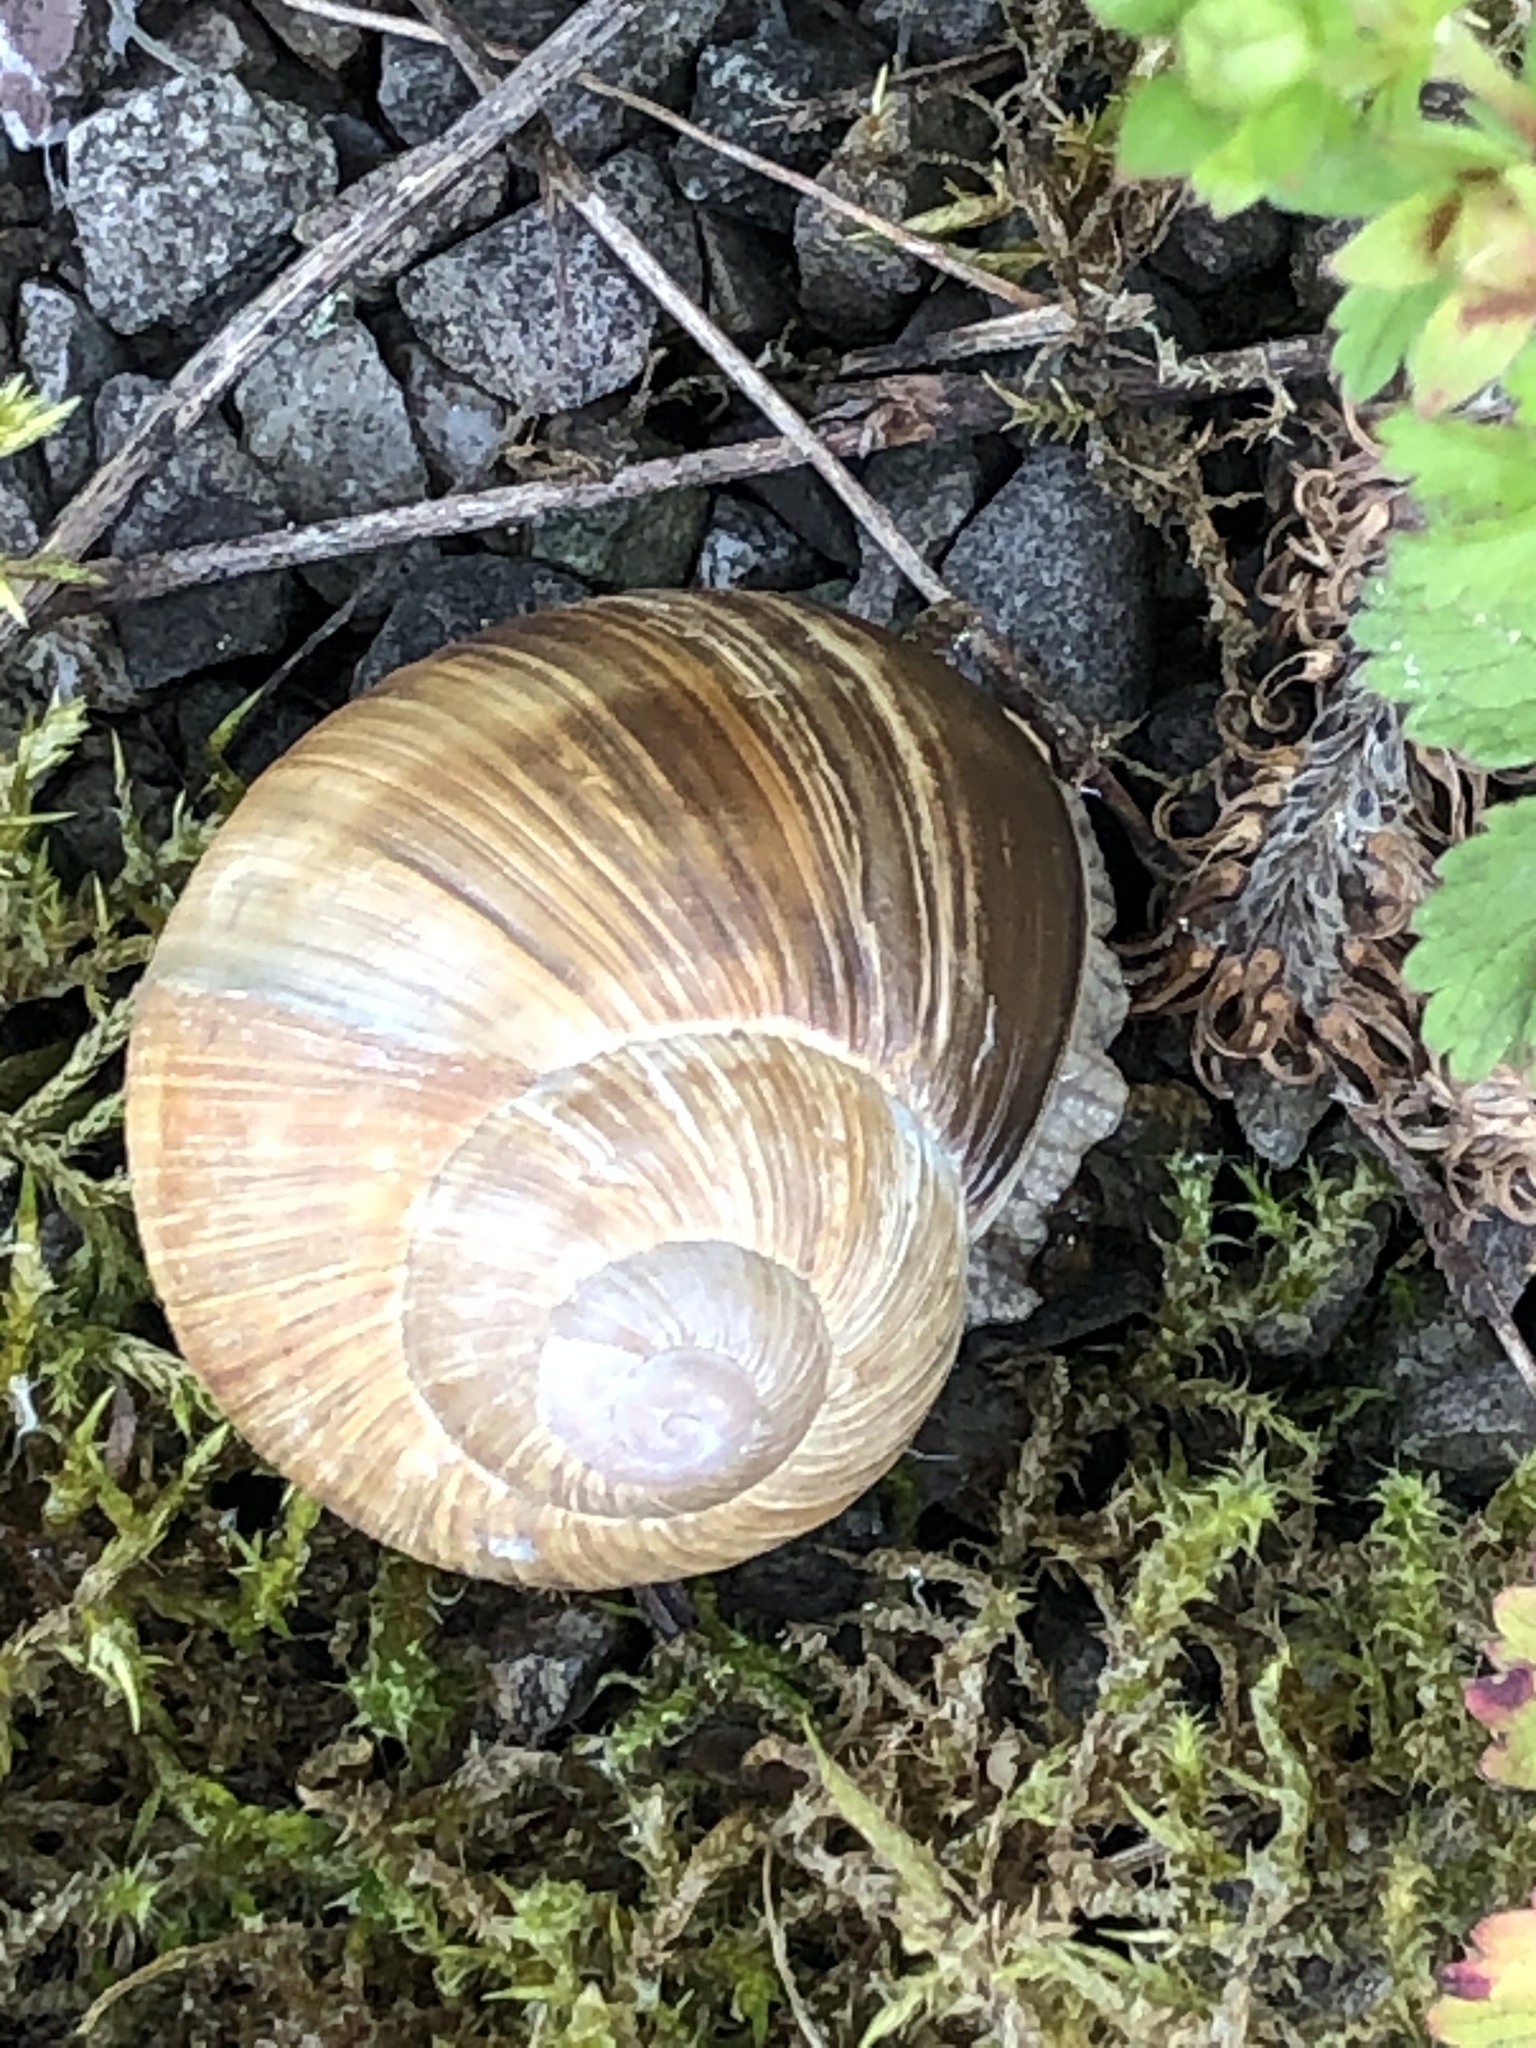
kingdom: Animalia
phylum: Mollusca
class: Gastropoda
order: Stylommatophora
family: Helicidae
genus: Helix
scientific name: Helix pomatia
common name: Roman snail
